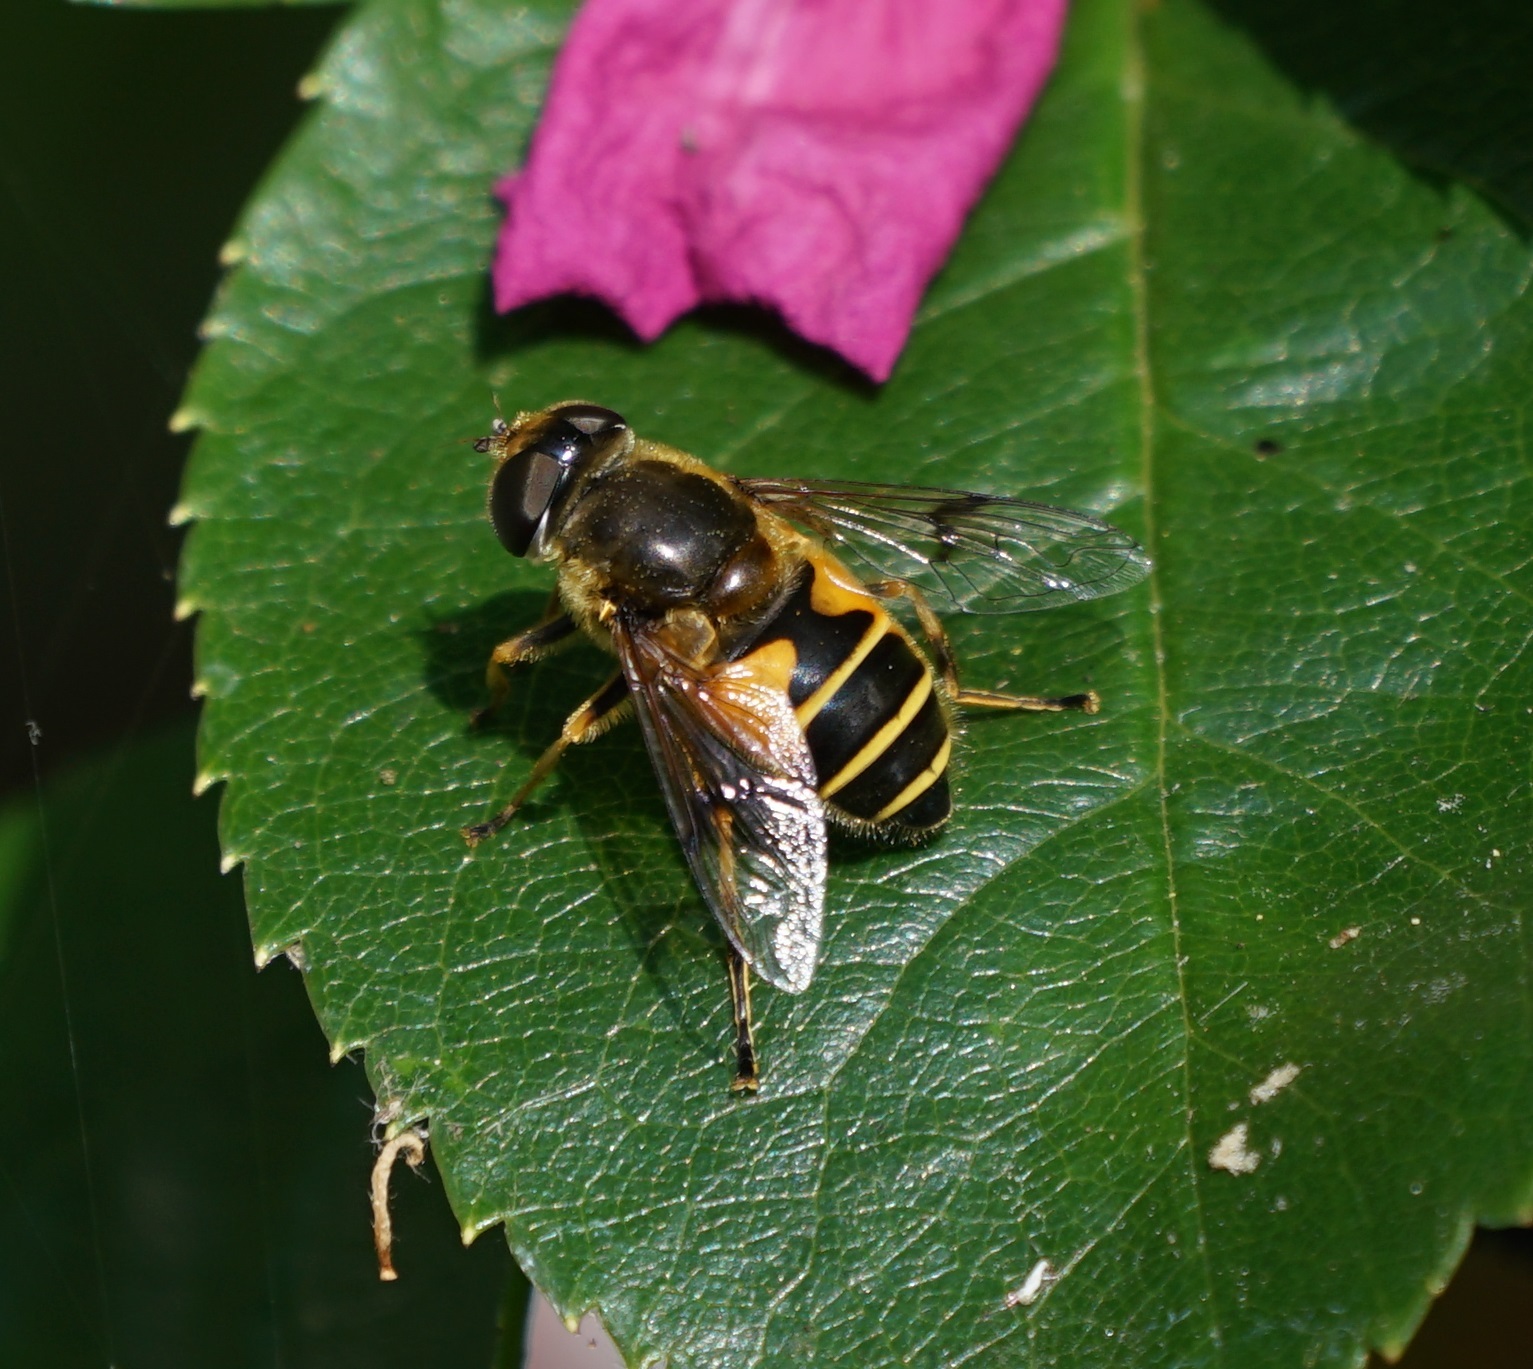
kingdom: Animalia
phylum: Arthropoda
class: Insecta
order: Diptera
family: Syrphidae
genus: Cheilosia
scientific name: Cheilosia morio
